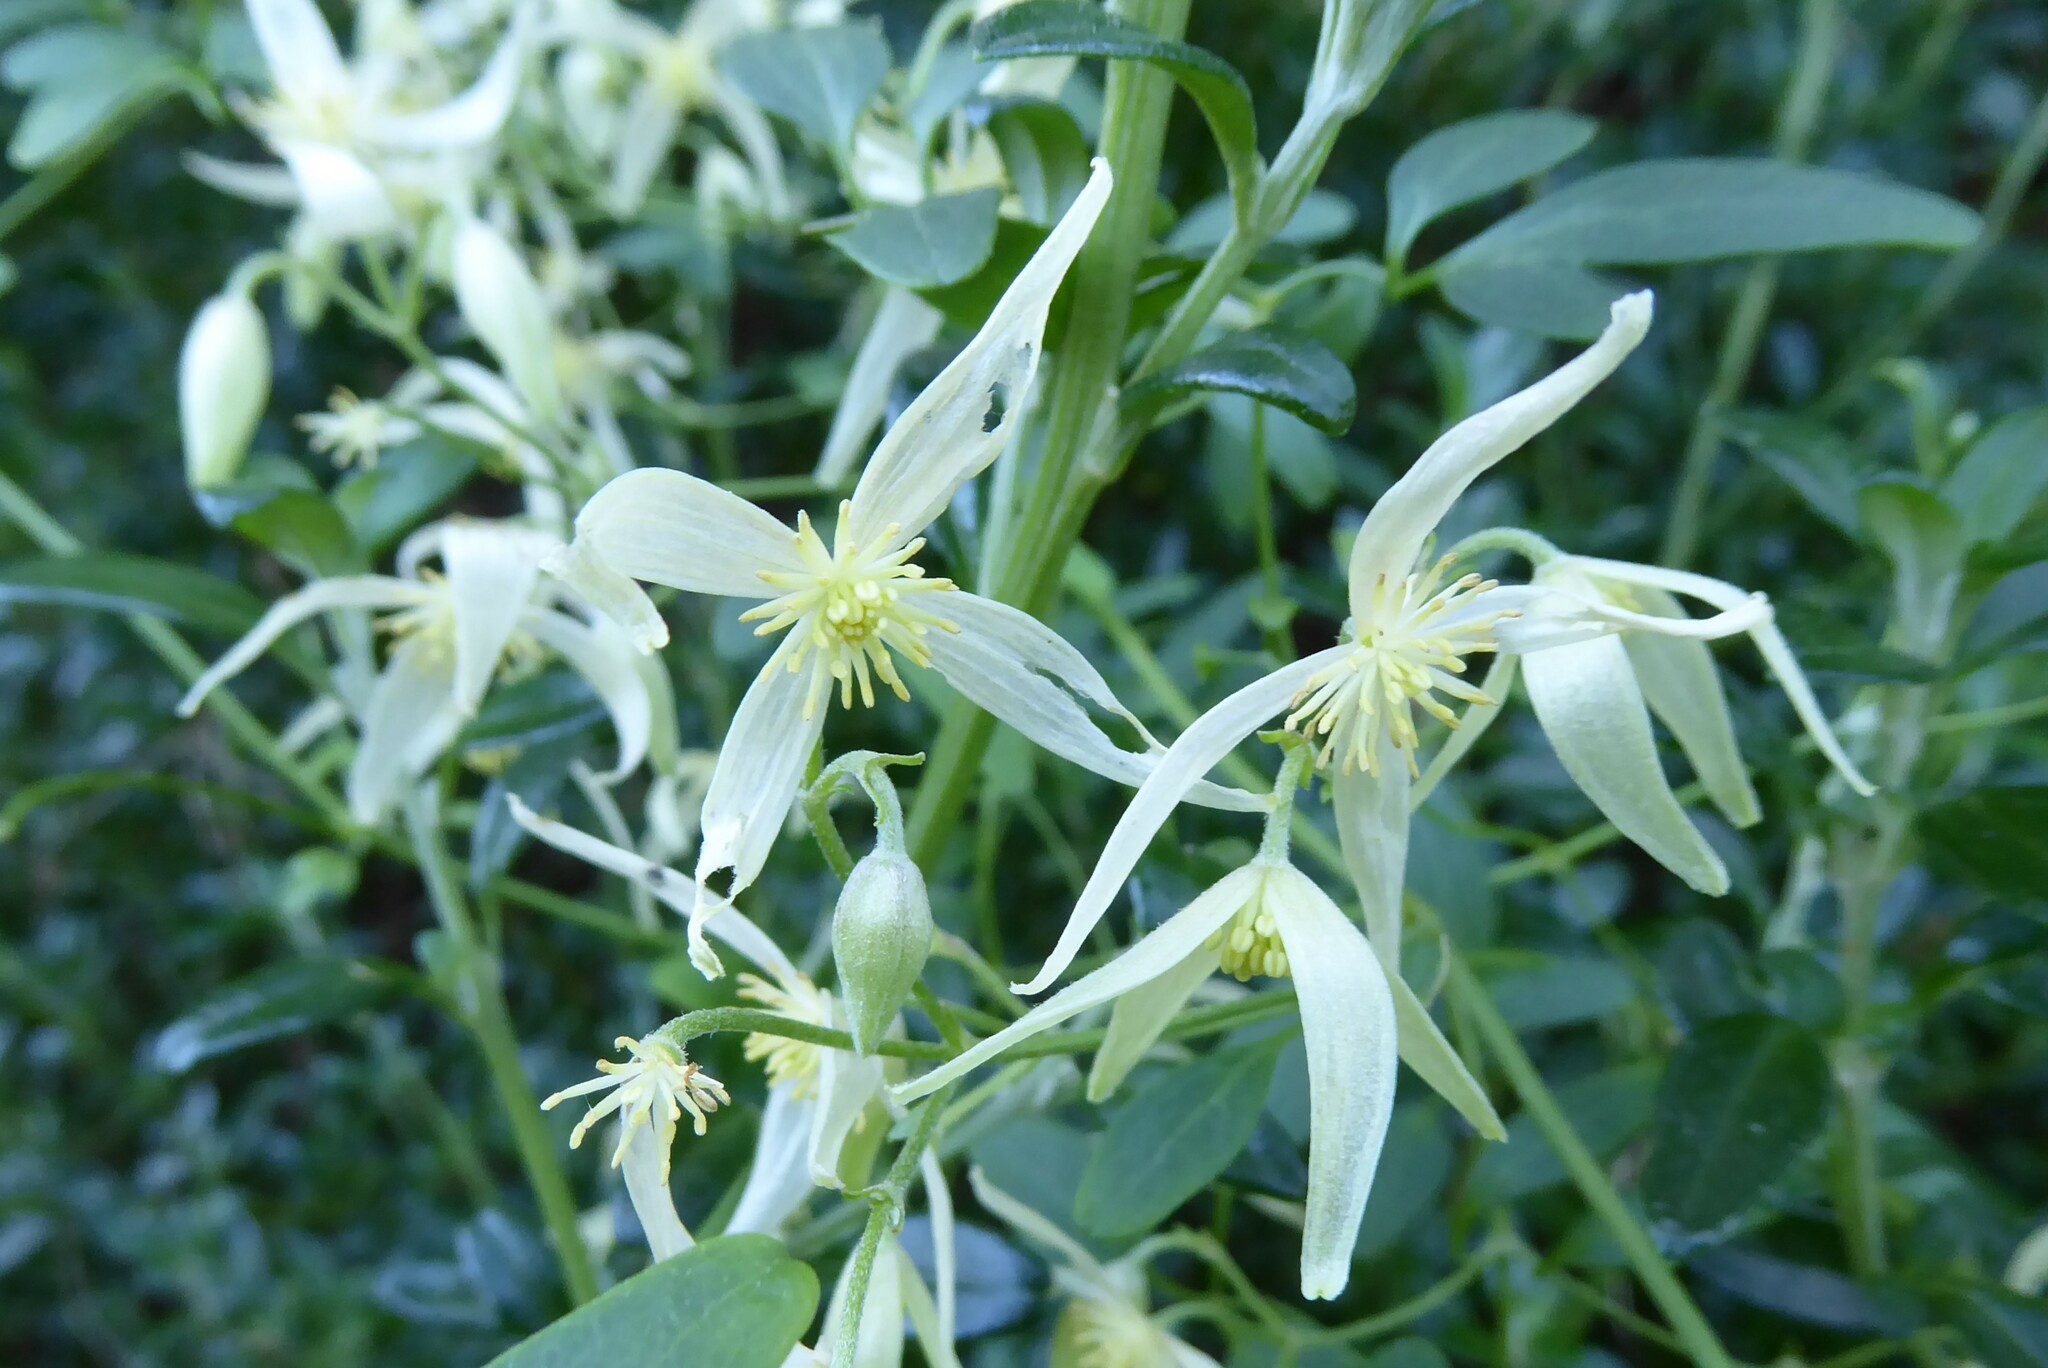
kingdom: Plantae
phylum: Tracheophyta
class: Magnoliopsida
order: Ranunculales
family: Ranunculaceae
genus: Clematis
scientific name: Clematis microphylla
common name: Headachevine
